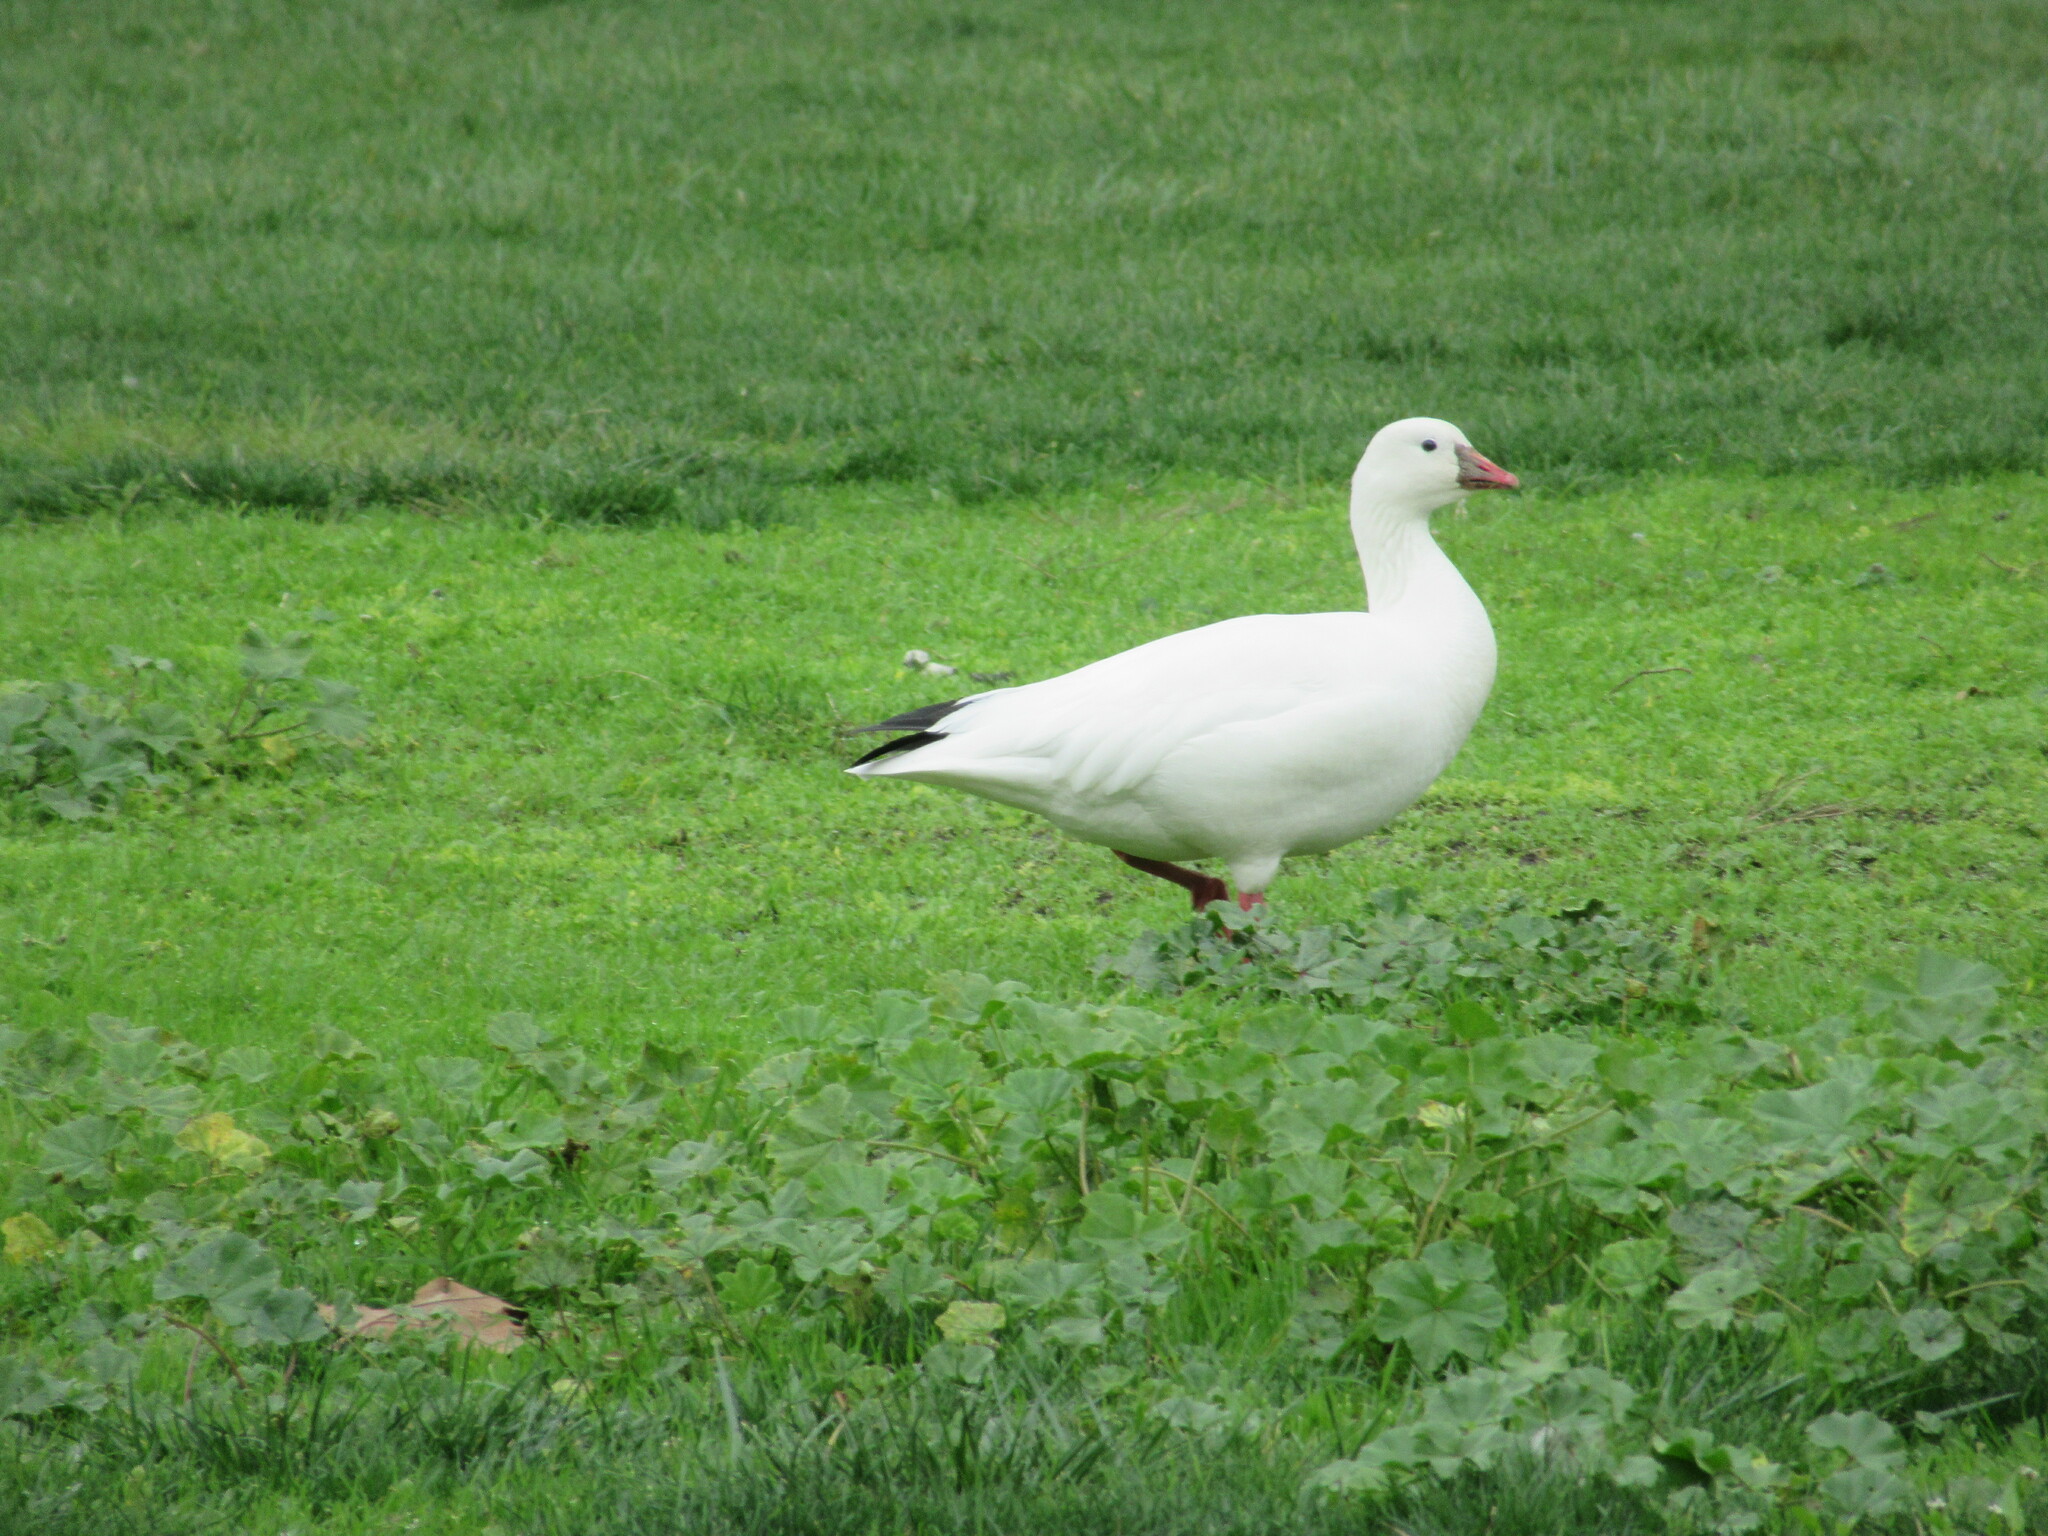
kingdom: Animalia
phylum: Chordata
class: Aves
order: Anseriformes
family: Anatidae
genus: Anser
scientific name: Anser rossii
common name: Ross's goose
